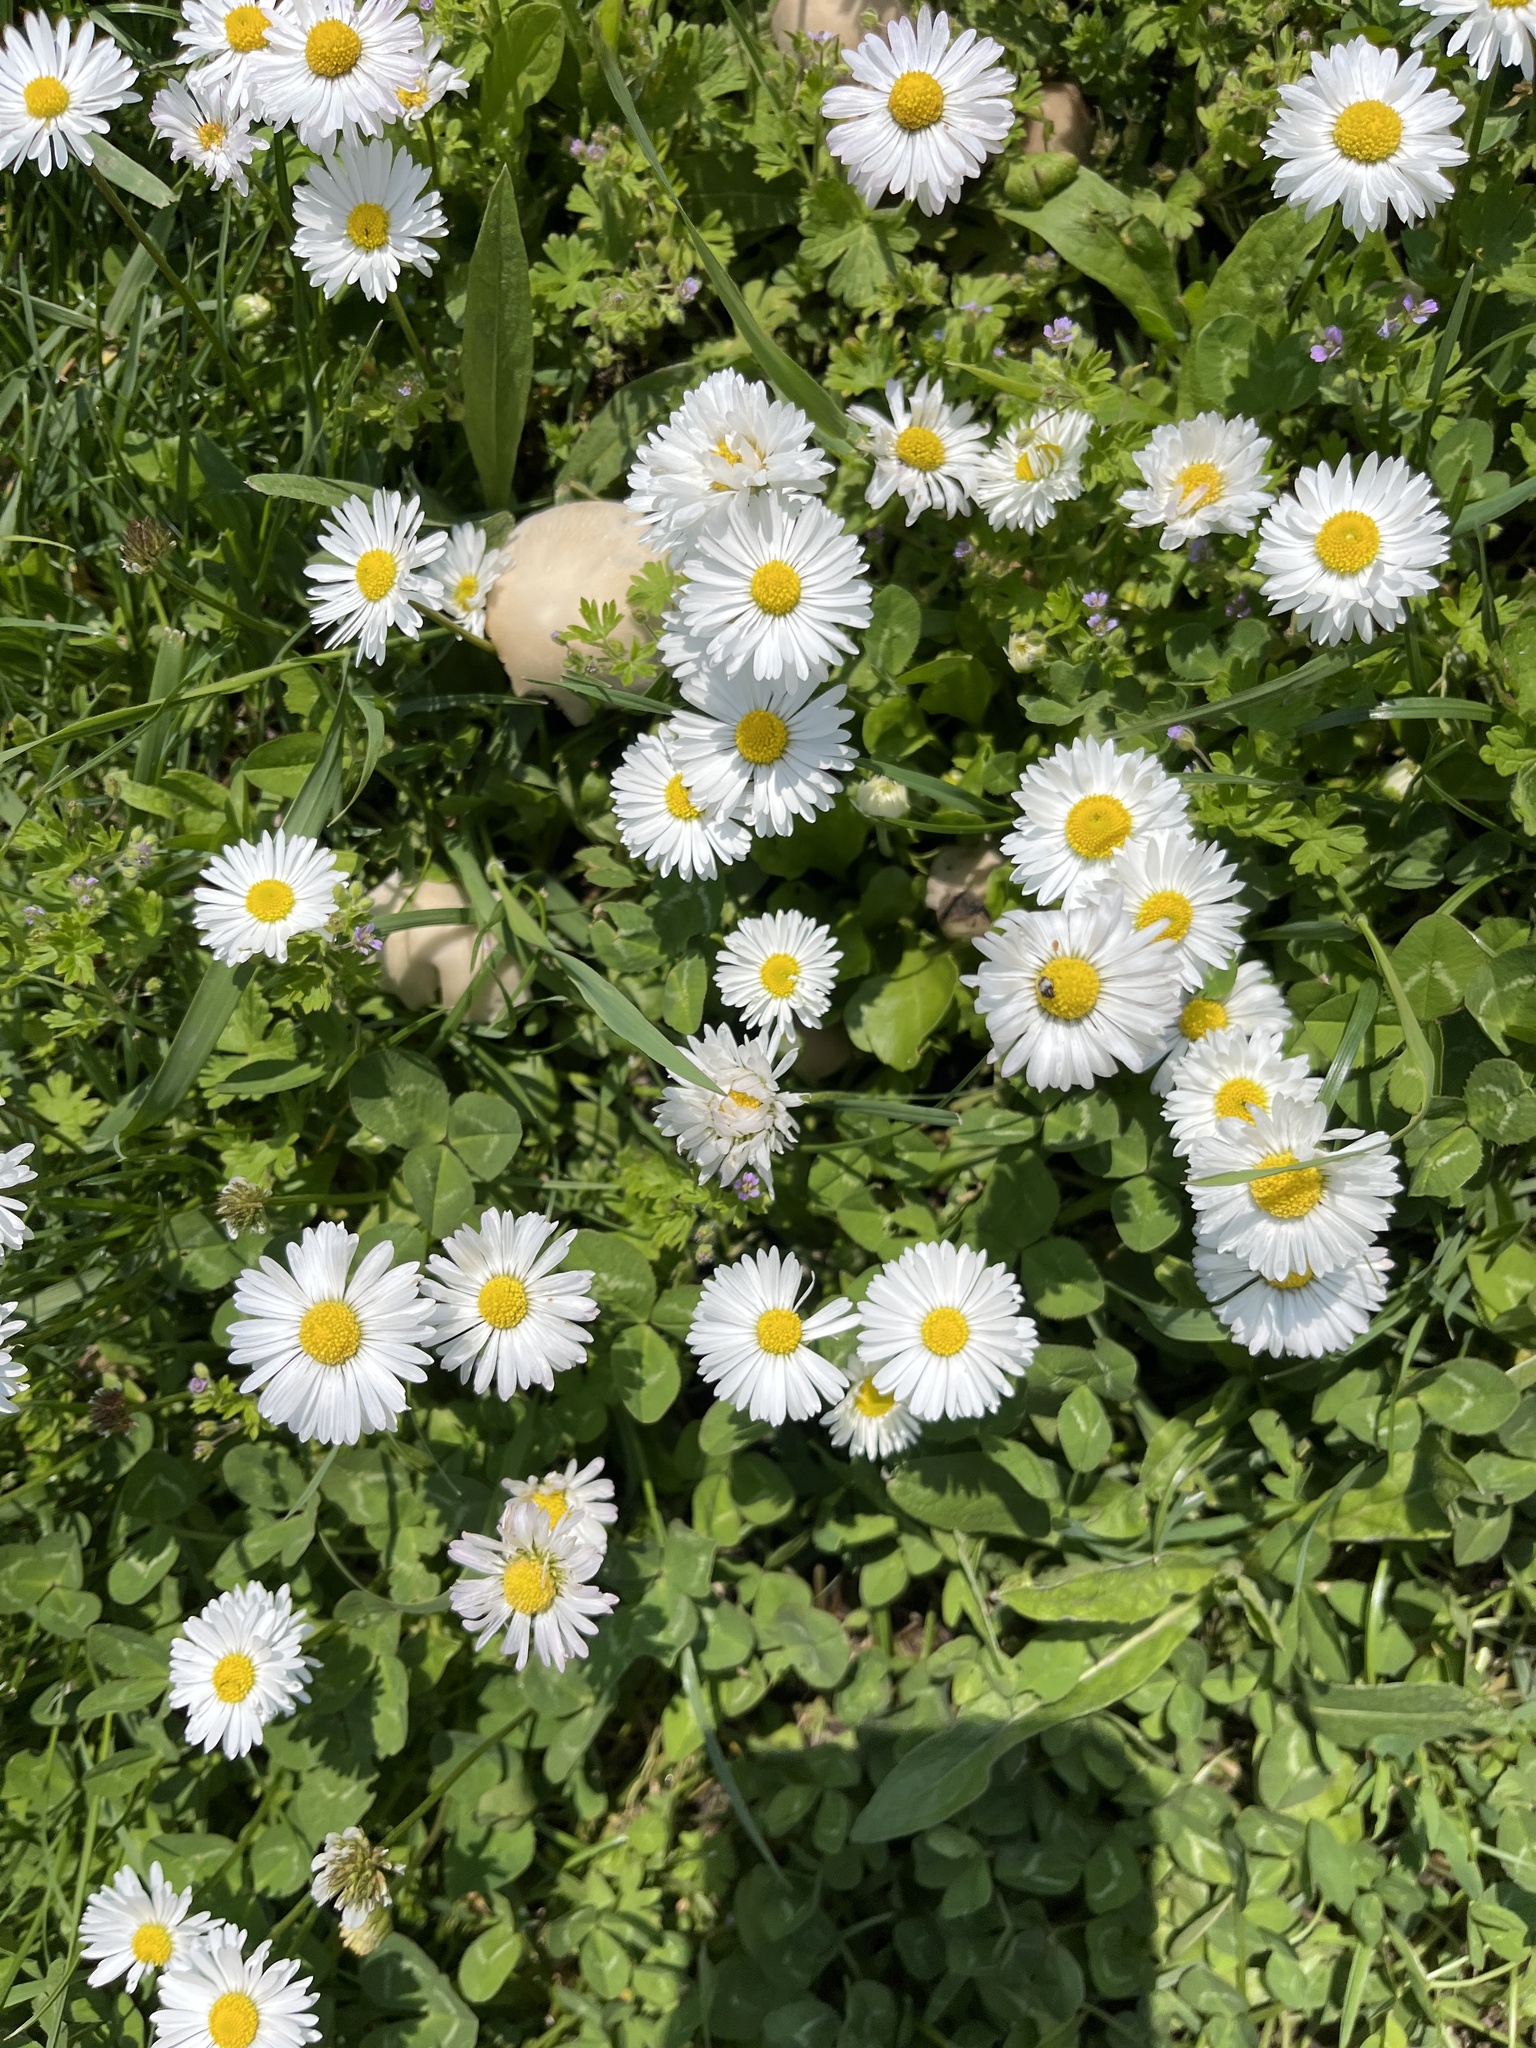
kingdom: Plantae
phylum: Tracheophyta
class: Magnoliopsida
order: Asterales
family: Asteraceae
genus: Bellis
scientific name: Bellis perennis
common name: Lawndaisy
